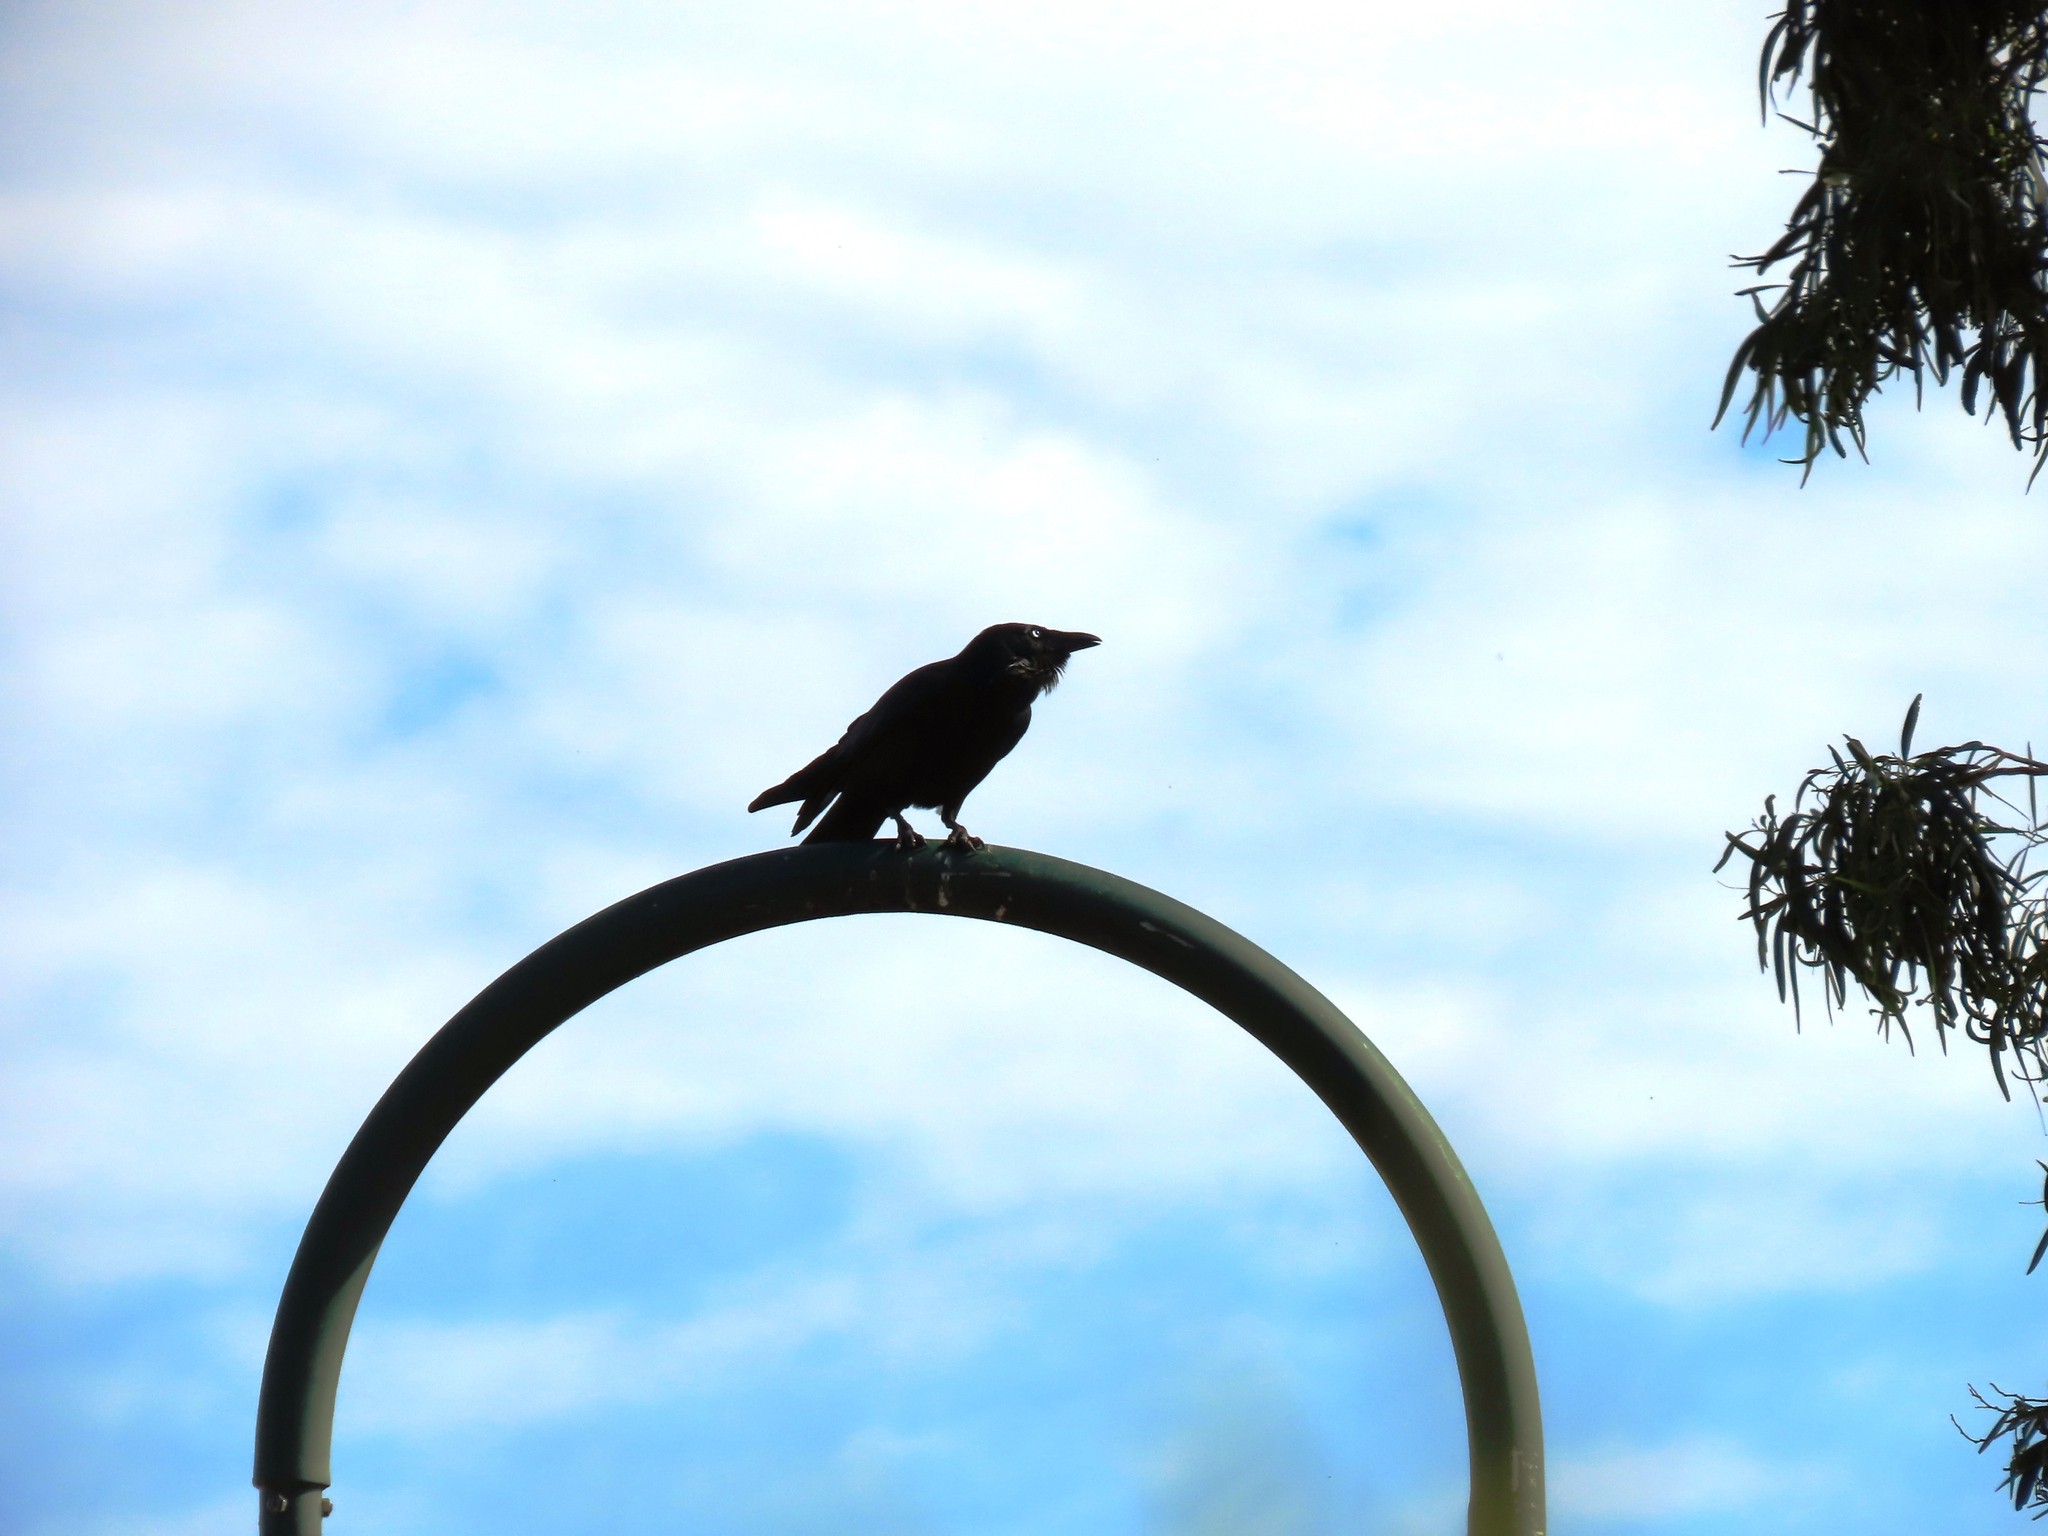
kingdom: Animalia
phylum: Chordata
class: Aves
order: Passeriformes
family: Corvidae
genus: Corvus
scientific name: Corvus mellori
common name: Little raven
